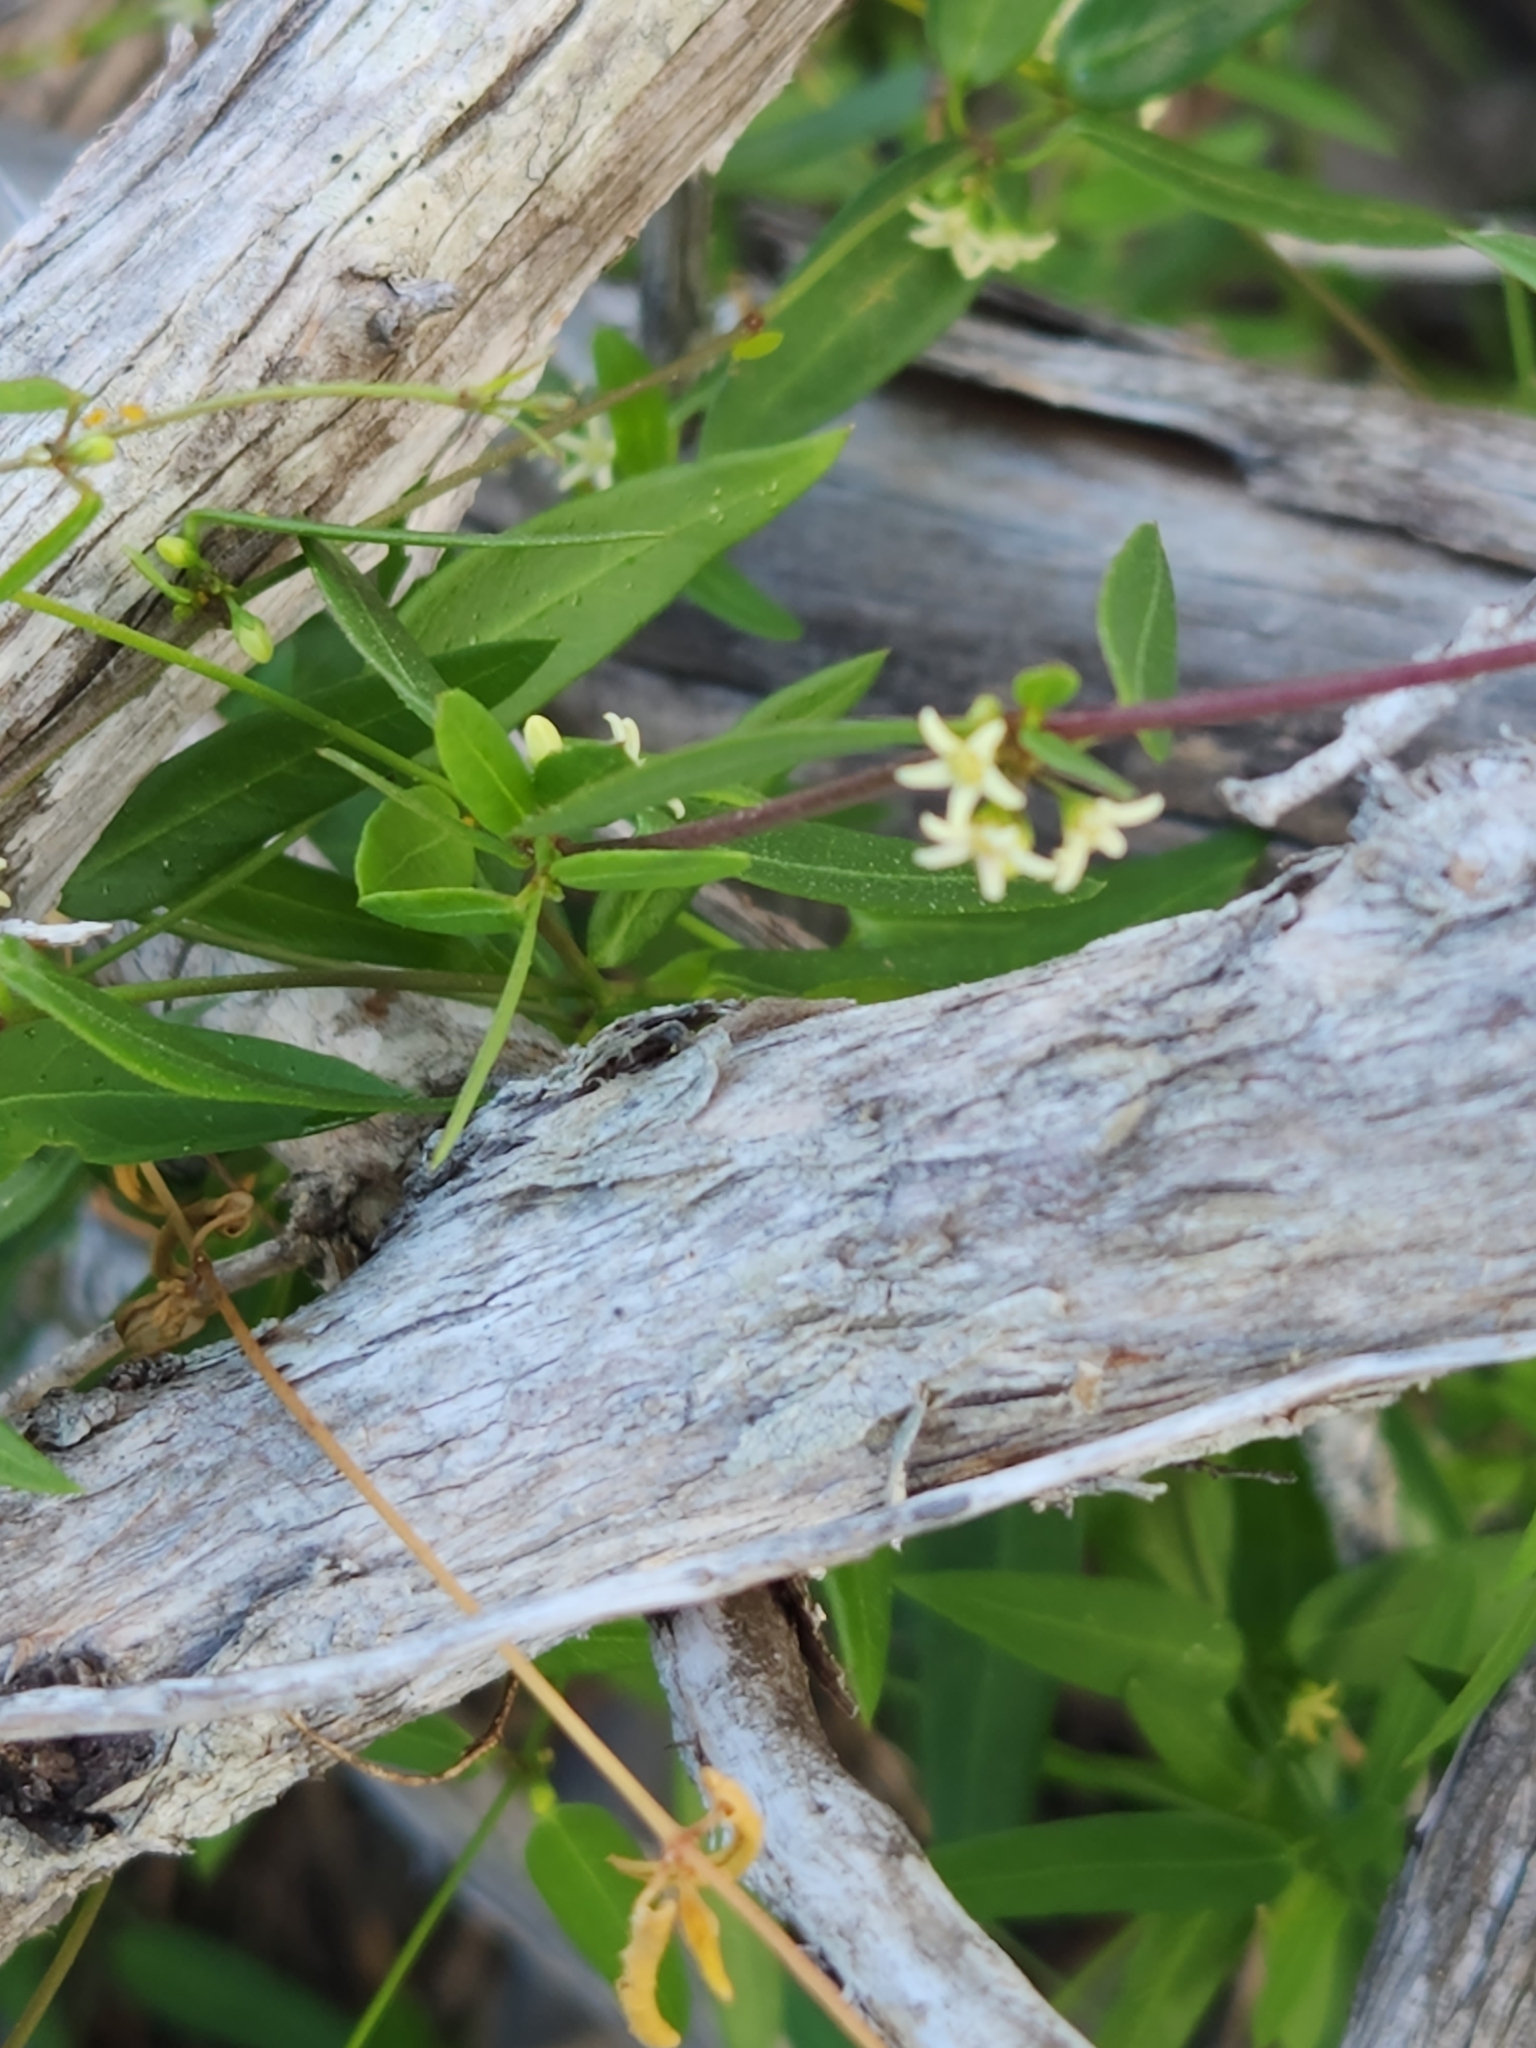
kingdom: Plantae
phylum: Tracheophyta
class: Magnoliopsida
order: Gentianales
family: Apocynaceae
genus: Metastelma
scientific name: Metastelma palmeri
